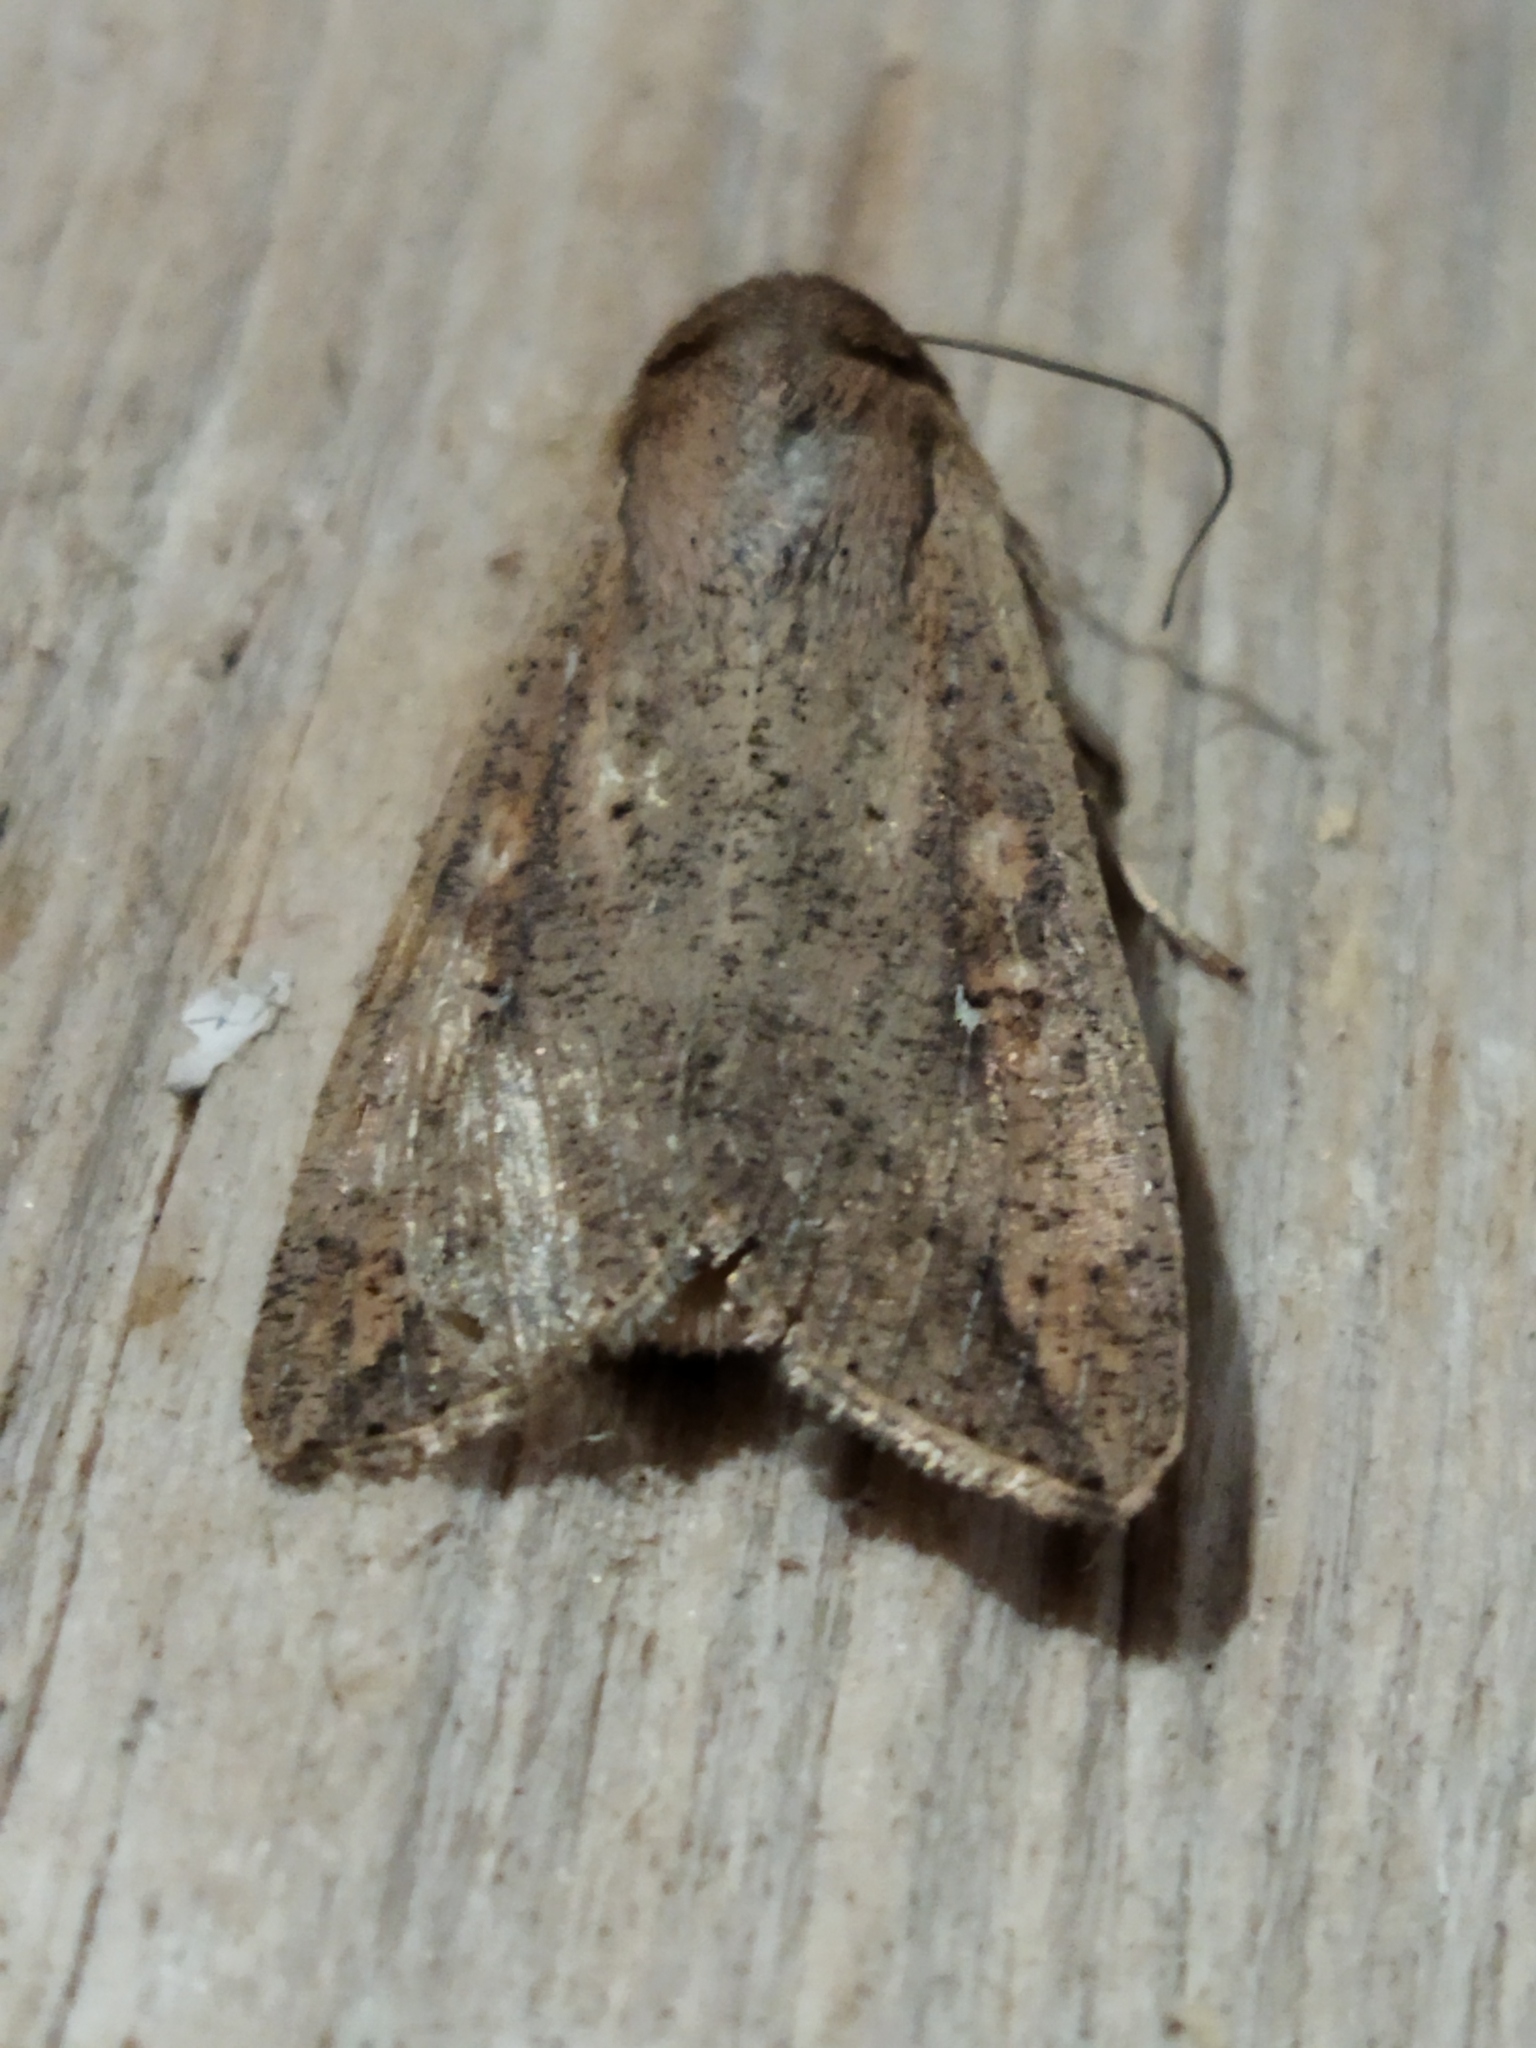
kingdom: Animalia
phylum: Arthropoda
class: Insecta
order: Lepidoptera
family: Noctuidae
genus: Mythimna
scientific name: Mythimna unipuncta
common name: White-speck
